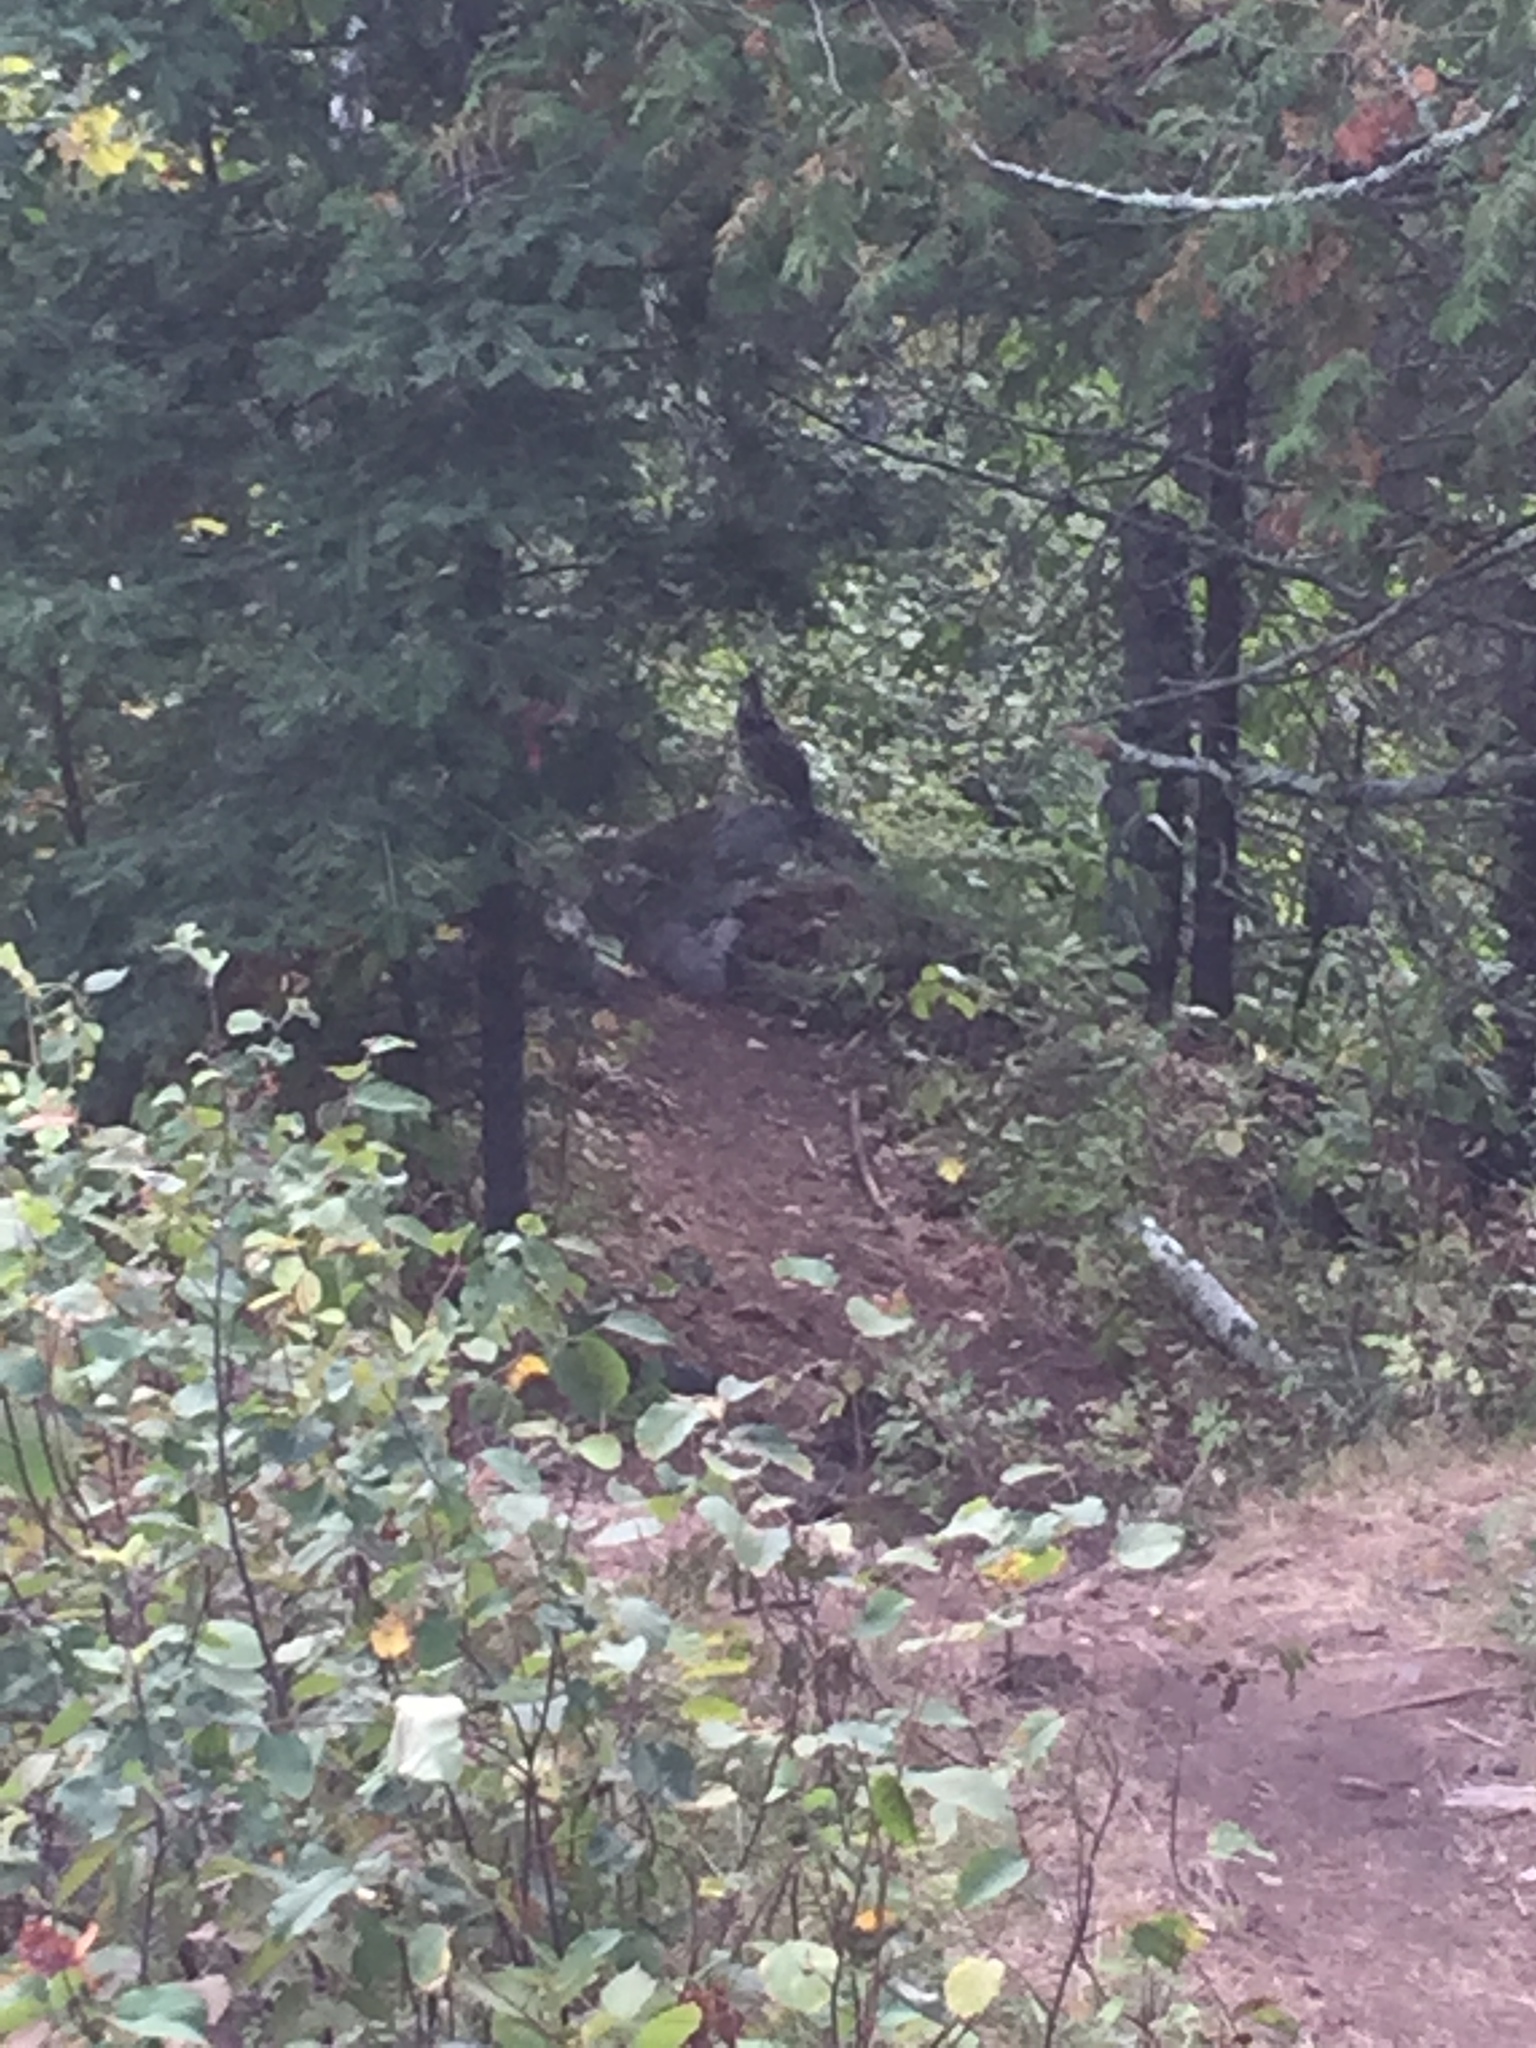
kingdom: Animalia
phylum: Chordata
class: Aves
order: Galliformes
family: Phasianidae
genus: Bonasa
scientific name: Bonasa umbellus
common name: Ruffed grouse
